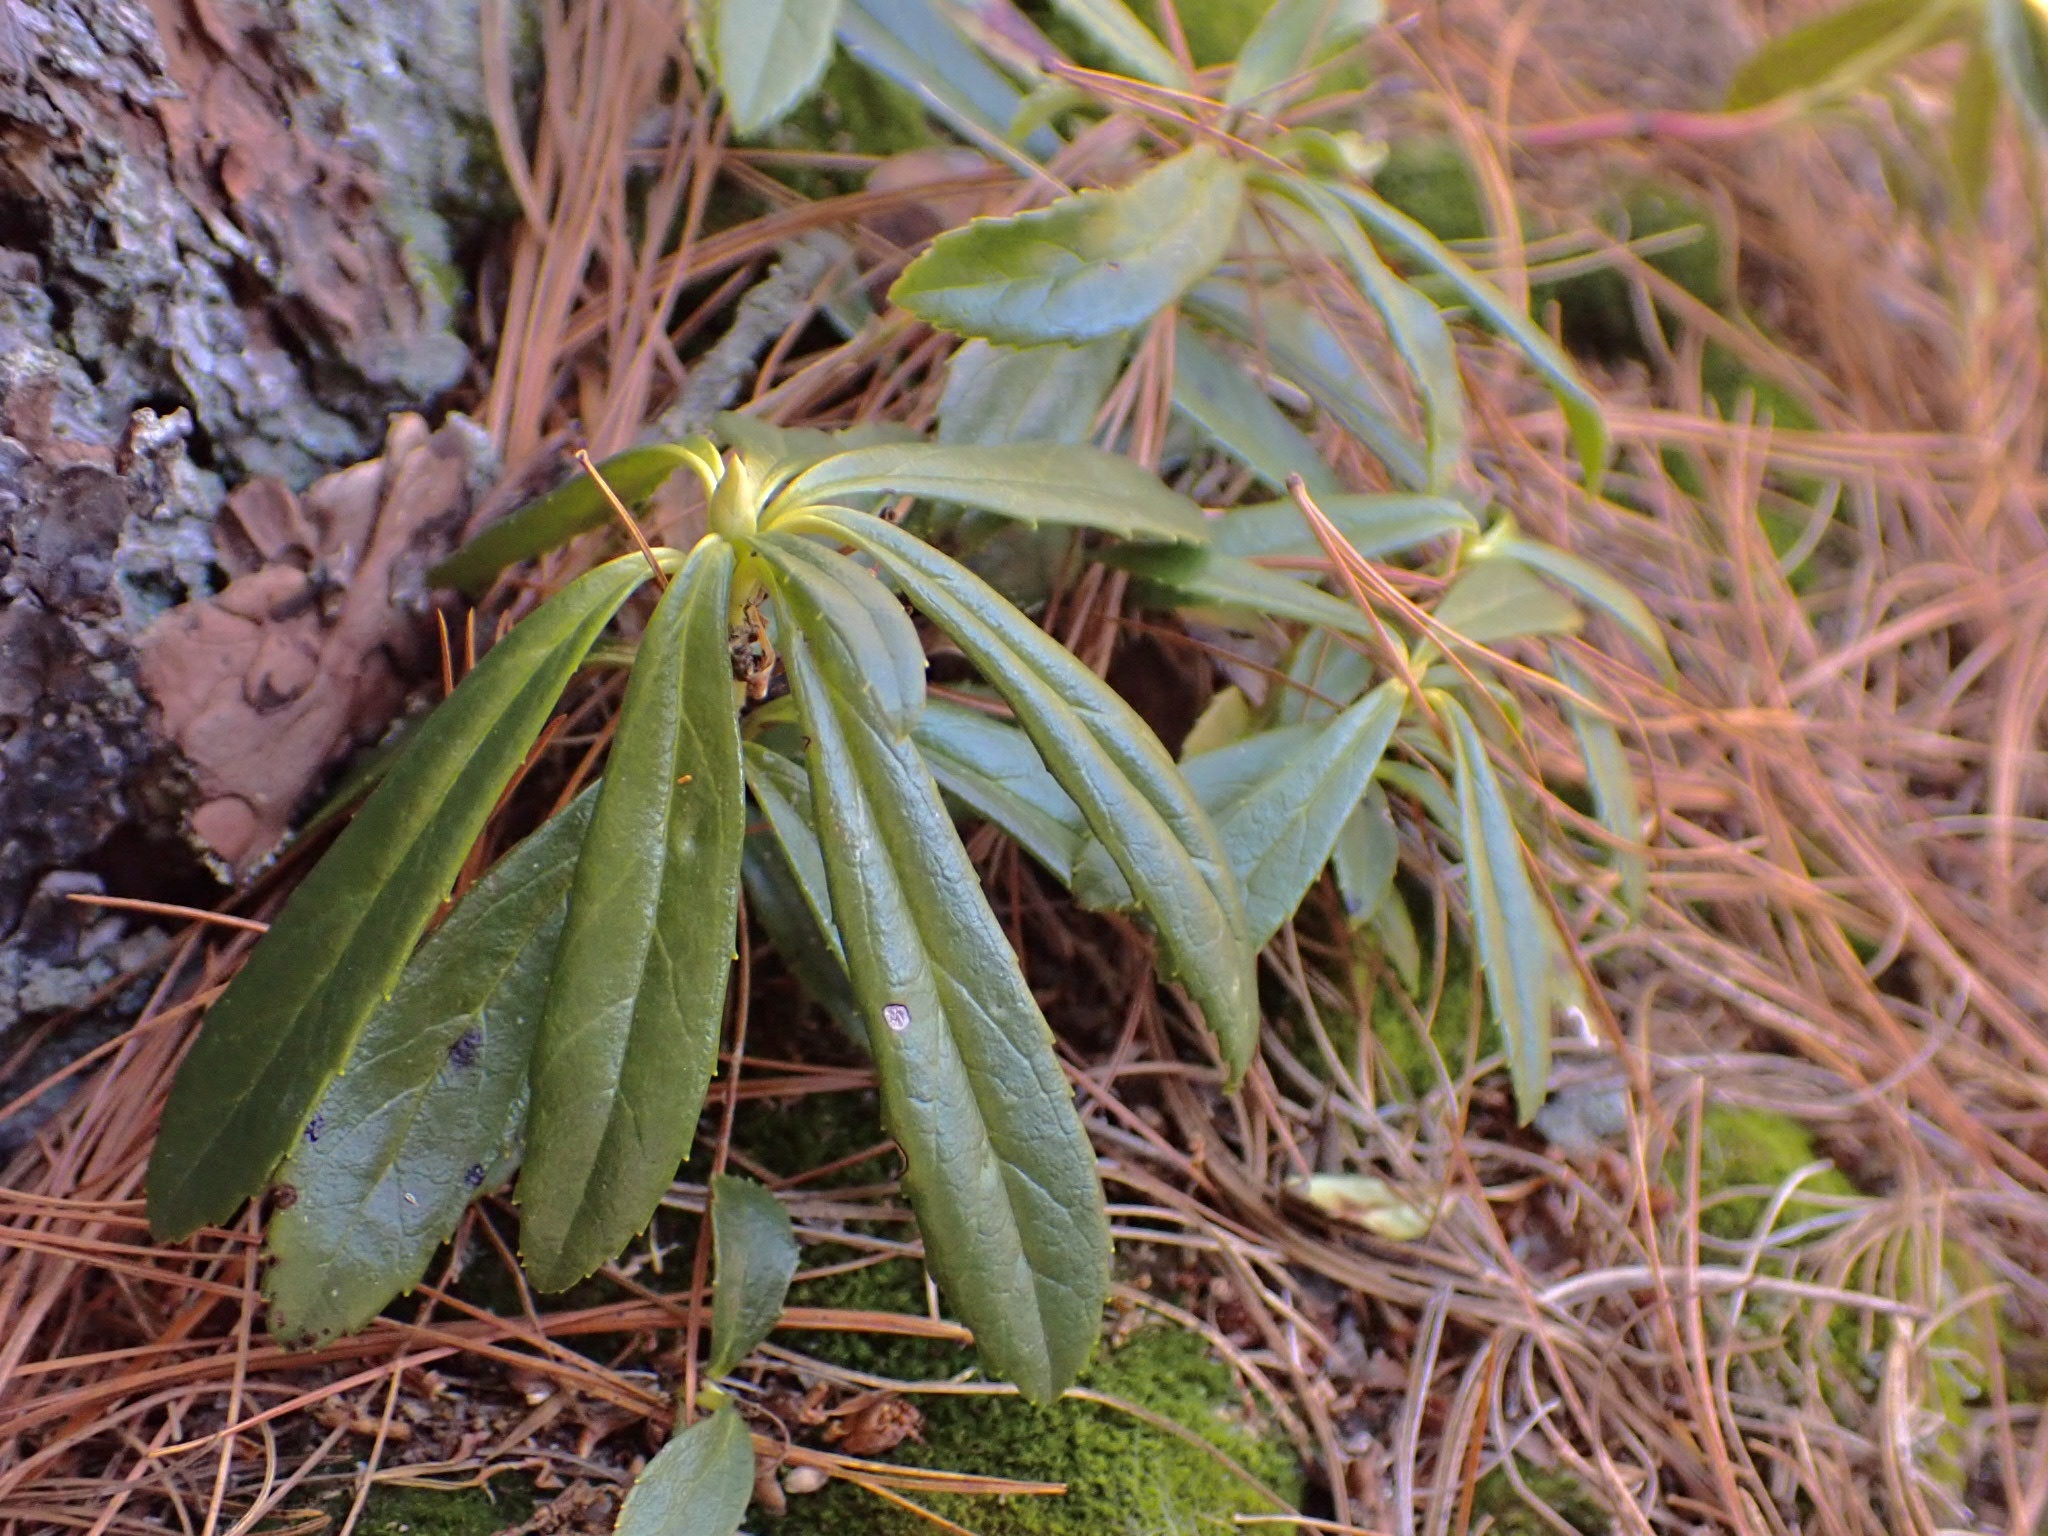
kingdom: Plantae
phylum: Tracheophyta
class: Magnoliopsida
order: Ericales
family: Ericaceae
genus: Chimaphila
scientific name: Chimaphila umbellata
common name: Pipsissewa
